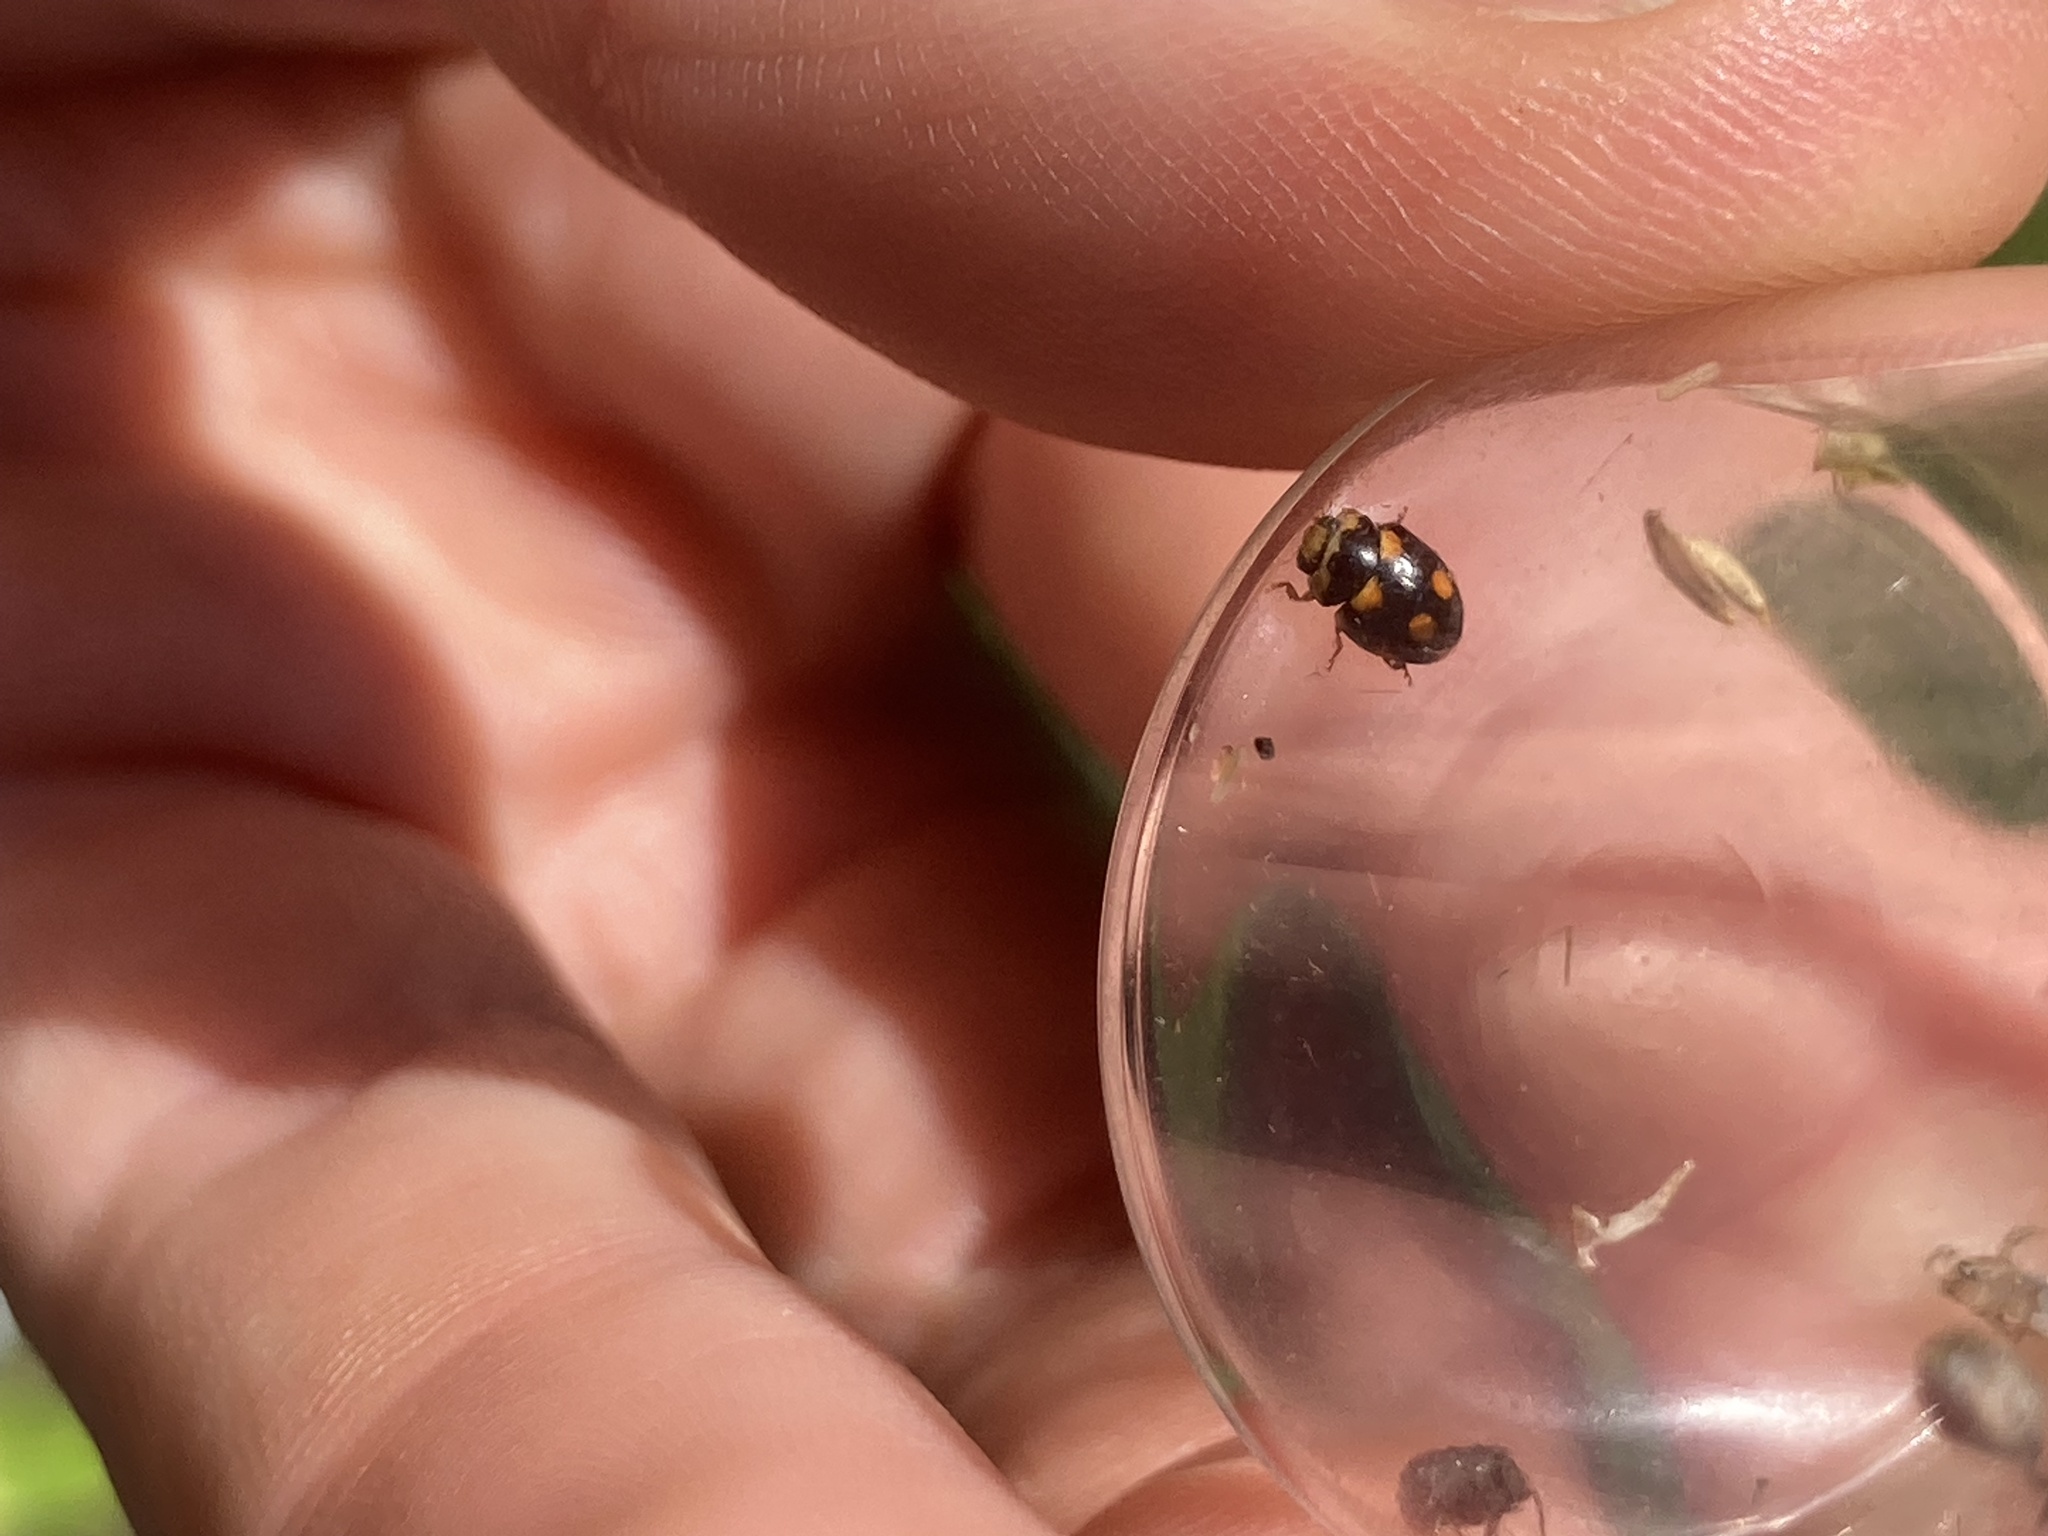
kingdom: Animalia
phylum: Arthropoda
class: Insecta
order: Coleoptera
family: Coccinellidae
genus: Brachiacantha
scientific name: Brachiacantha ursina
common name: Ursine spurleg lady beetle
